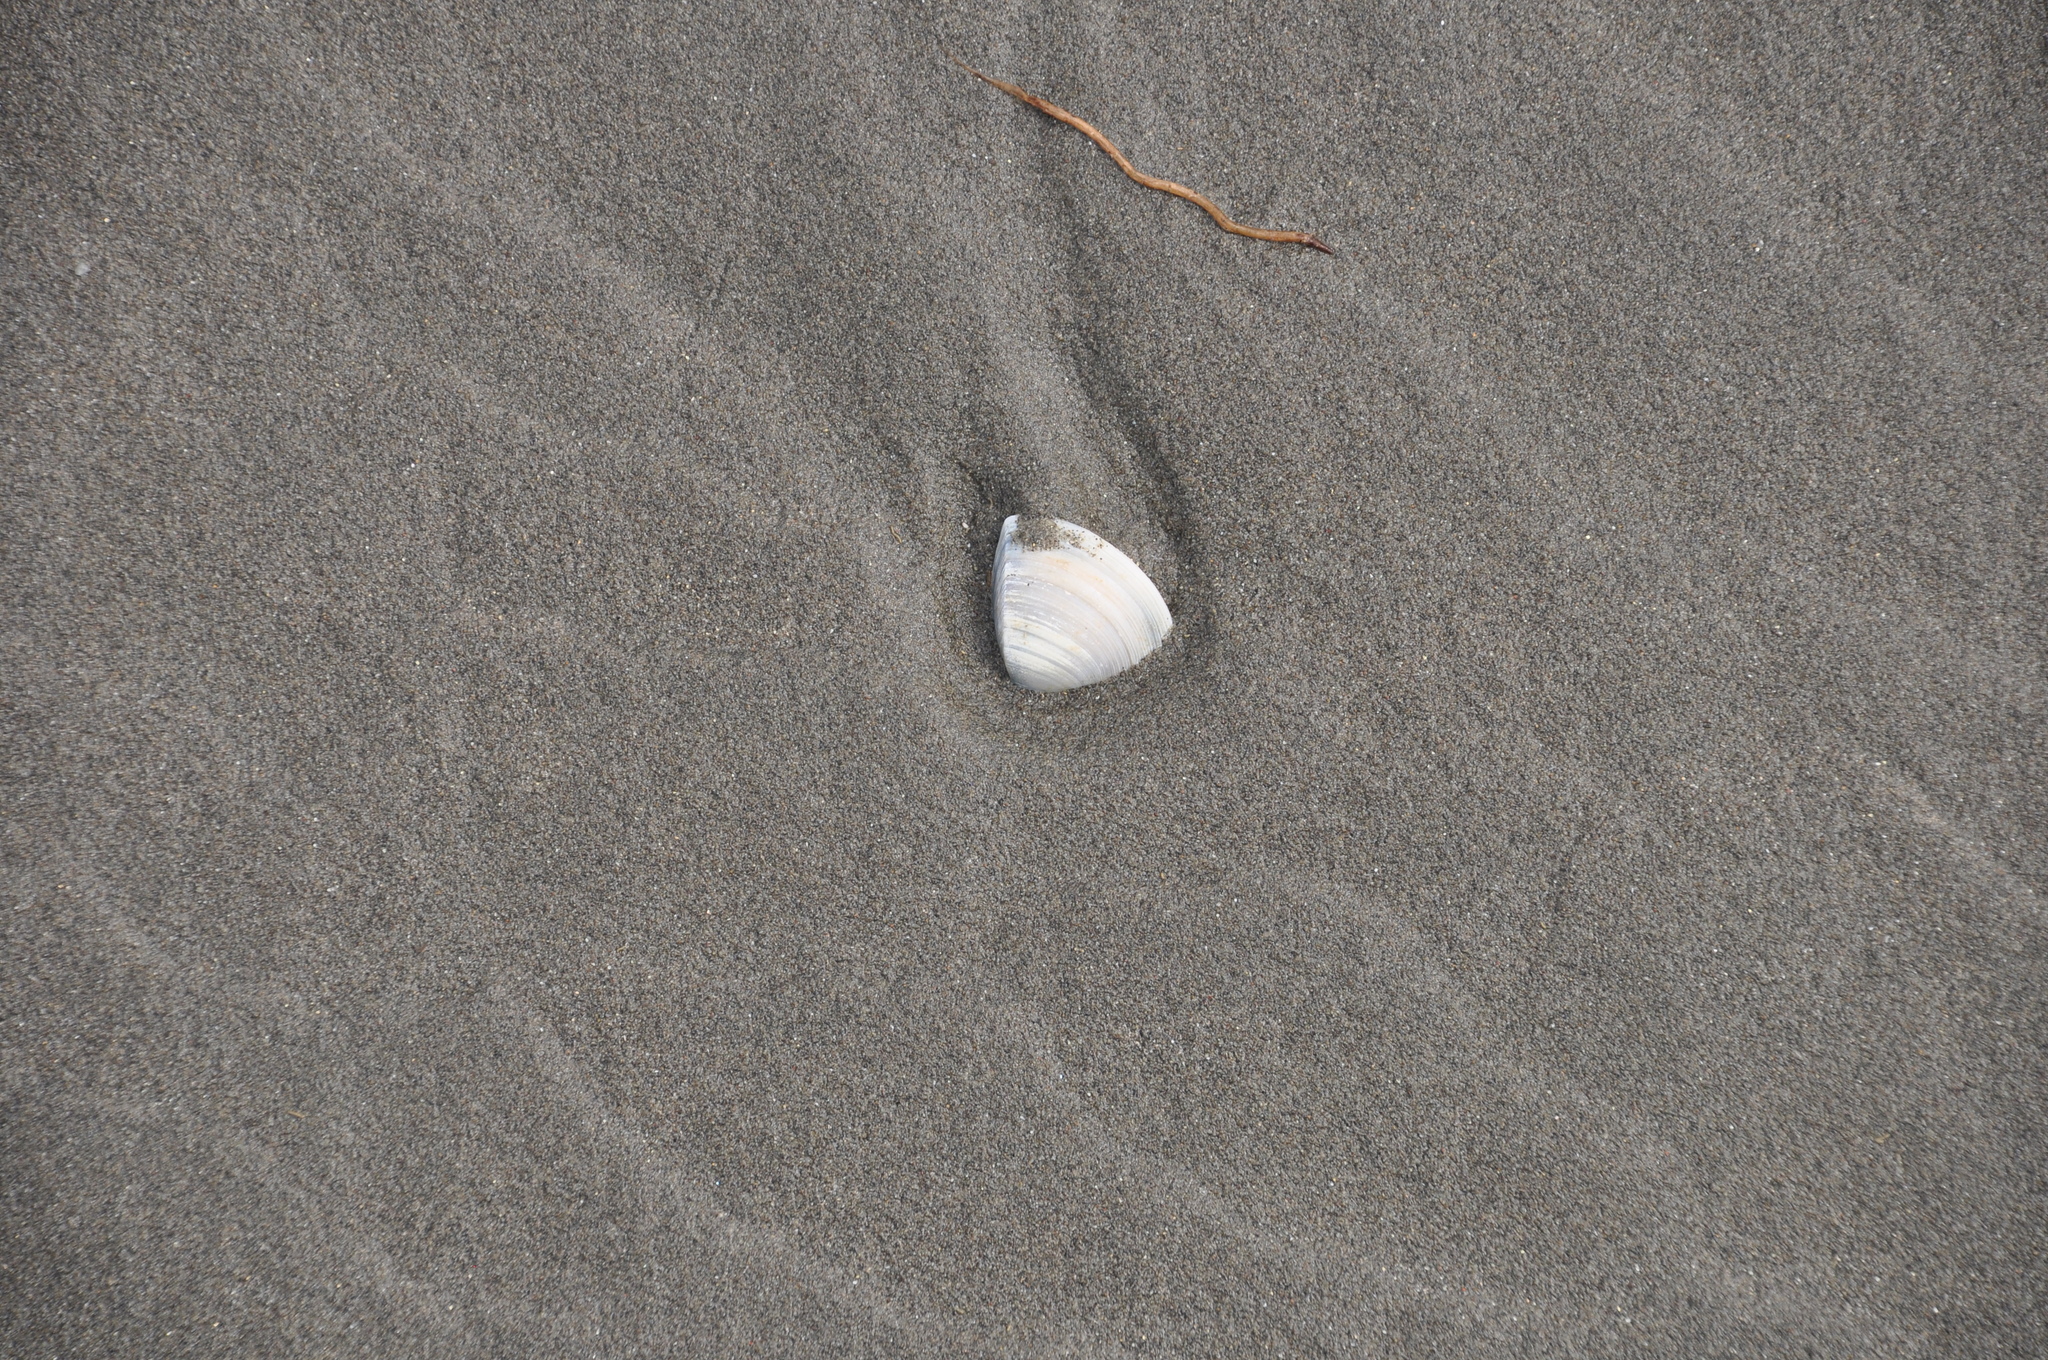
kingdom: Animalia
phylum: Mollusca
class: Bivalvia
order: Venerida
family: Mactridae
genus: Crassula
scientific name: Crassula aequilatera
